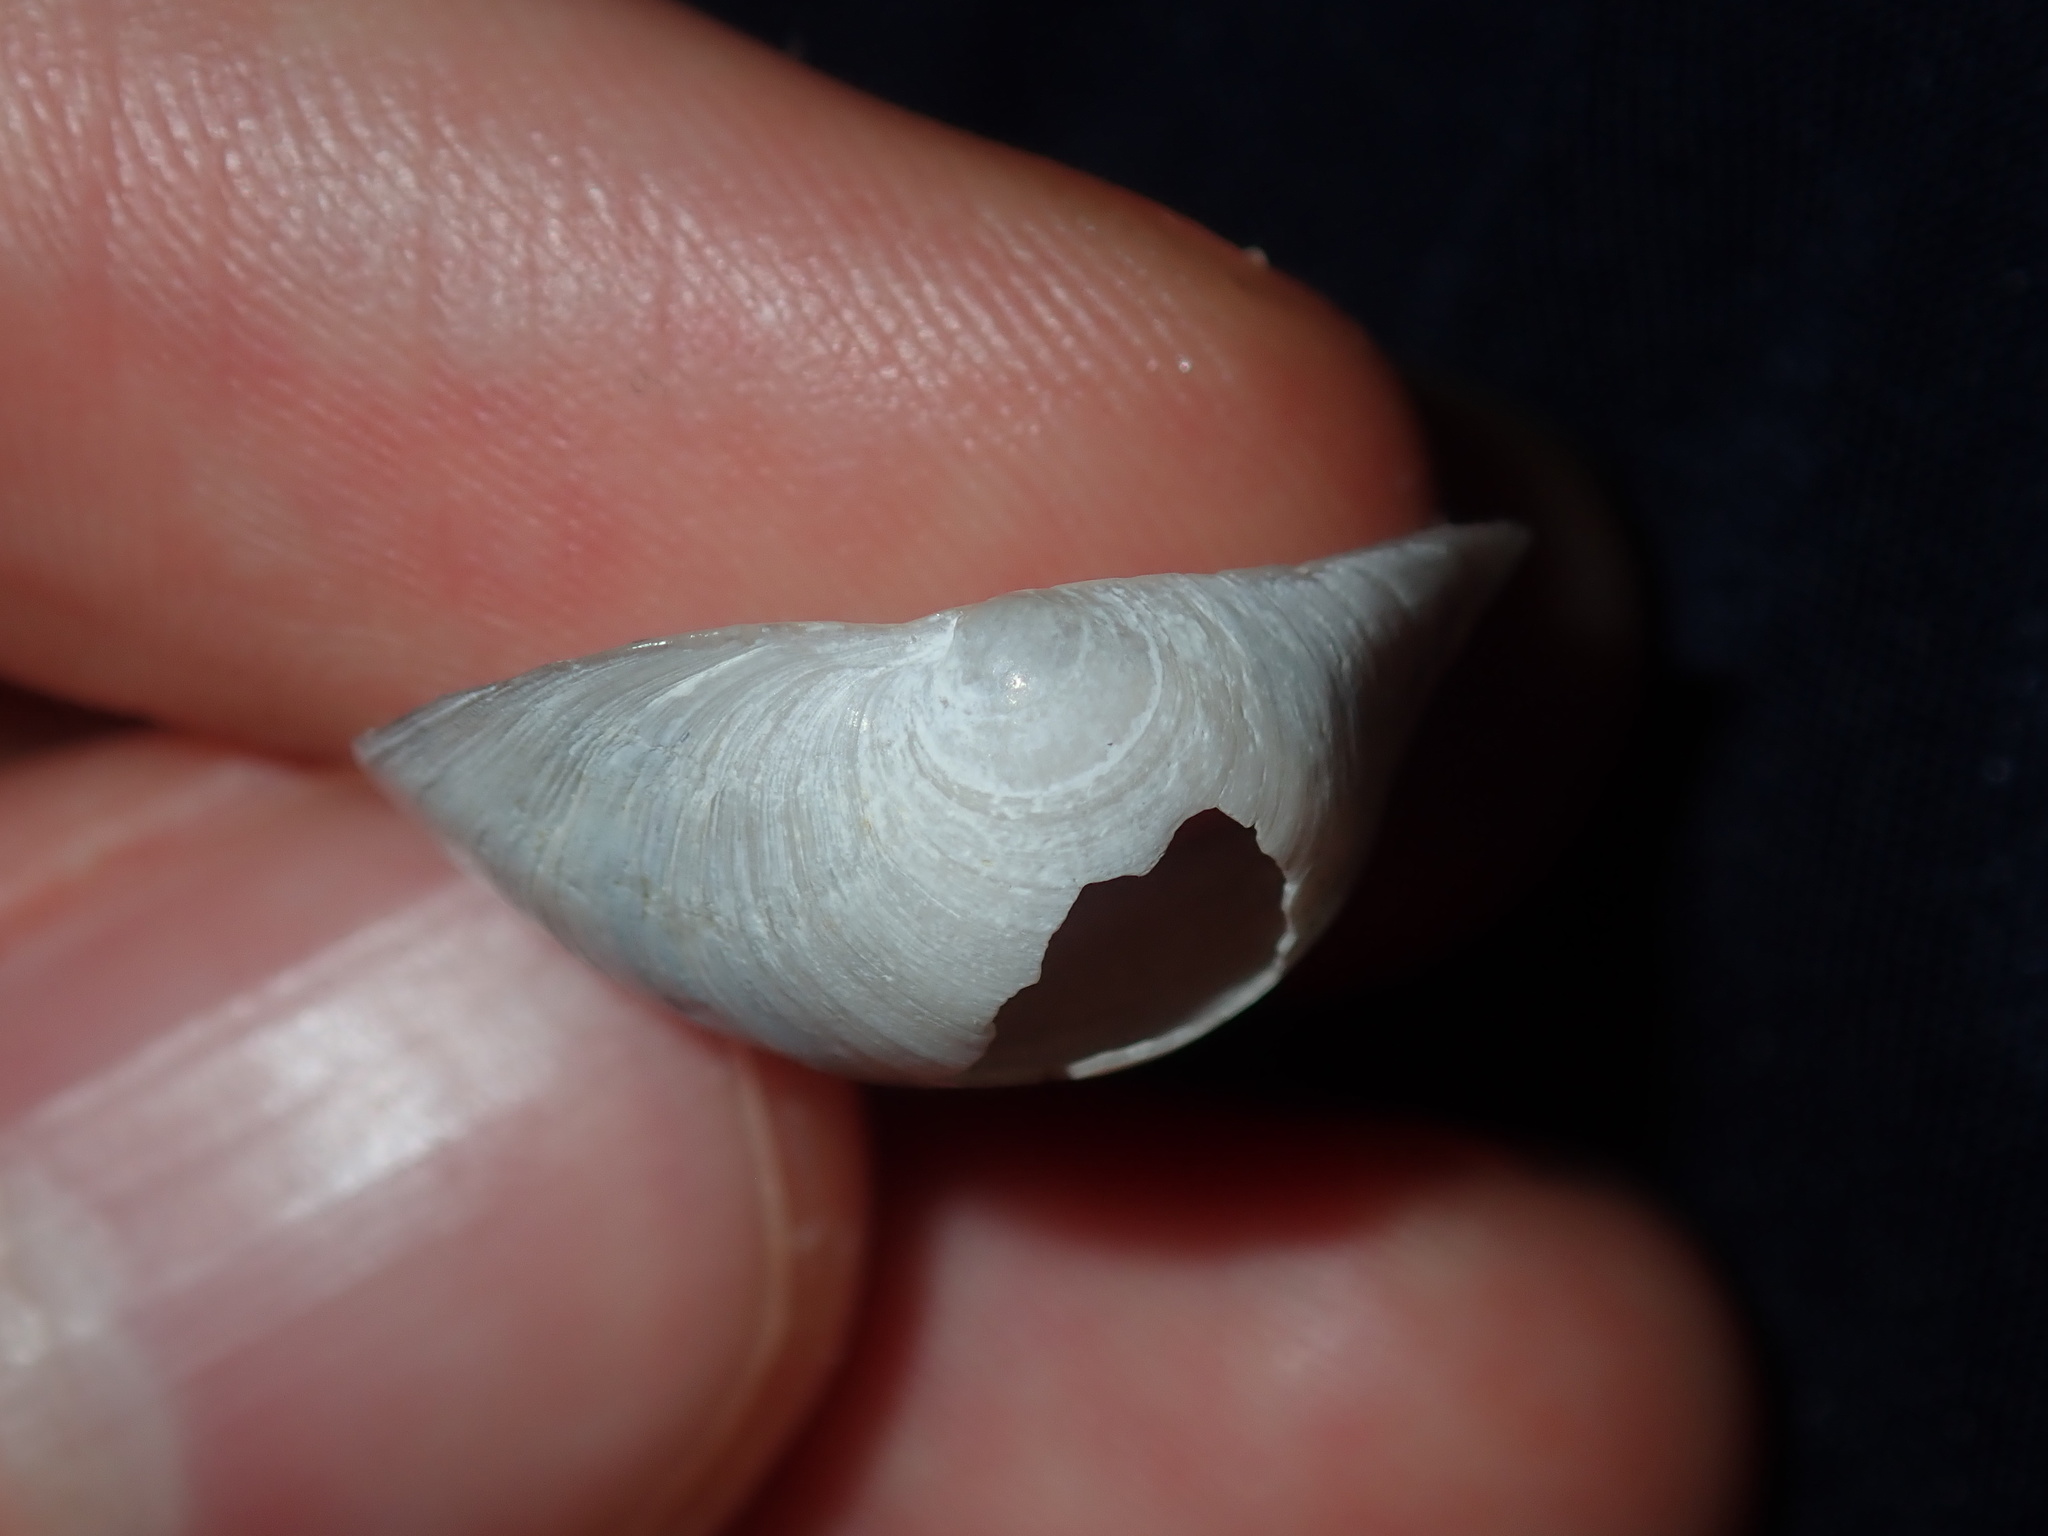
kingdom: Animalia
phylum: Mollusca
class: Bivalvia
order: Lucinida
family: Lucinidae
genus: Cavatidens
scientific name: Cavatidens omissa
